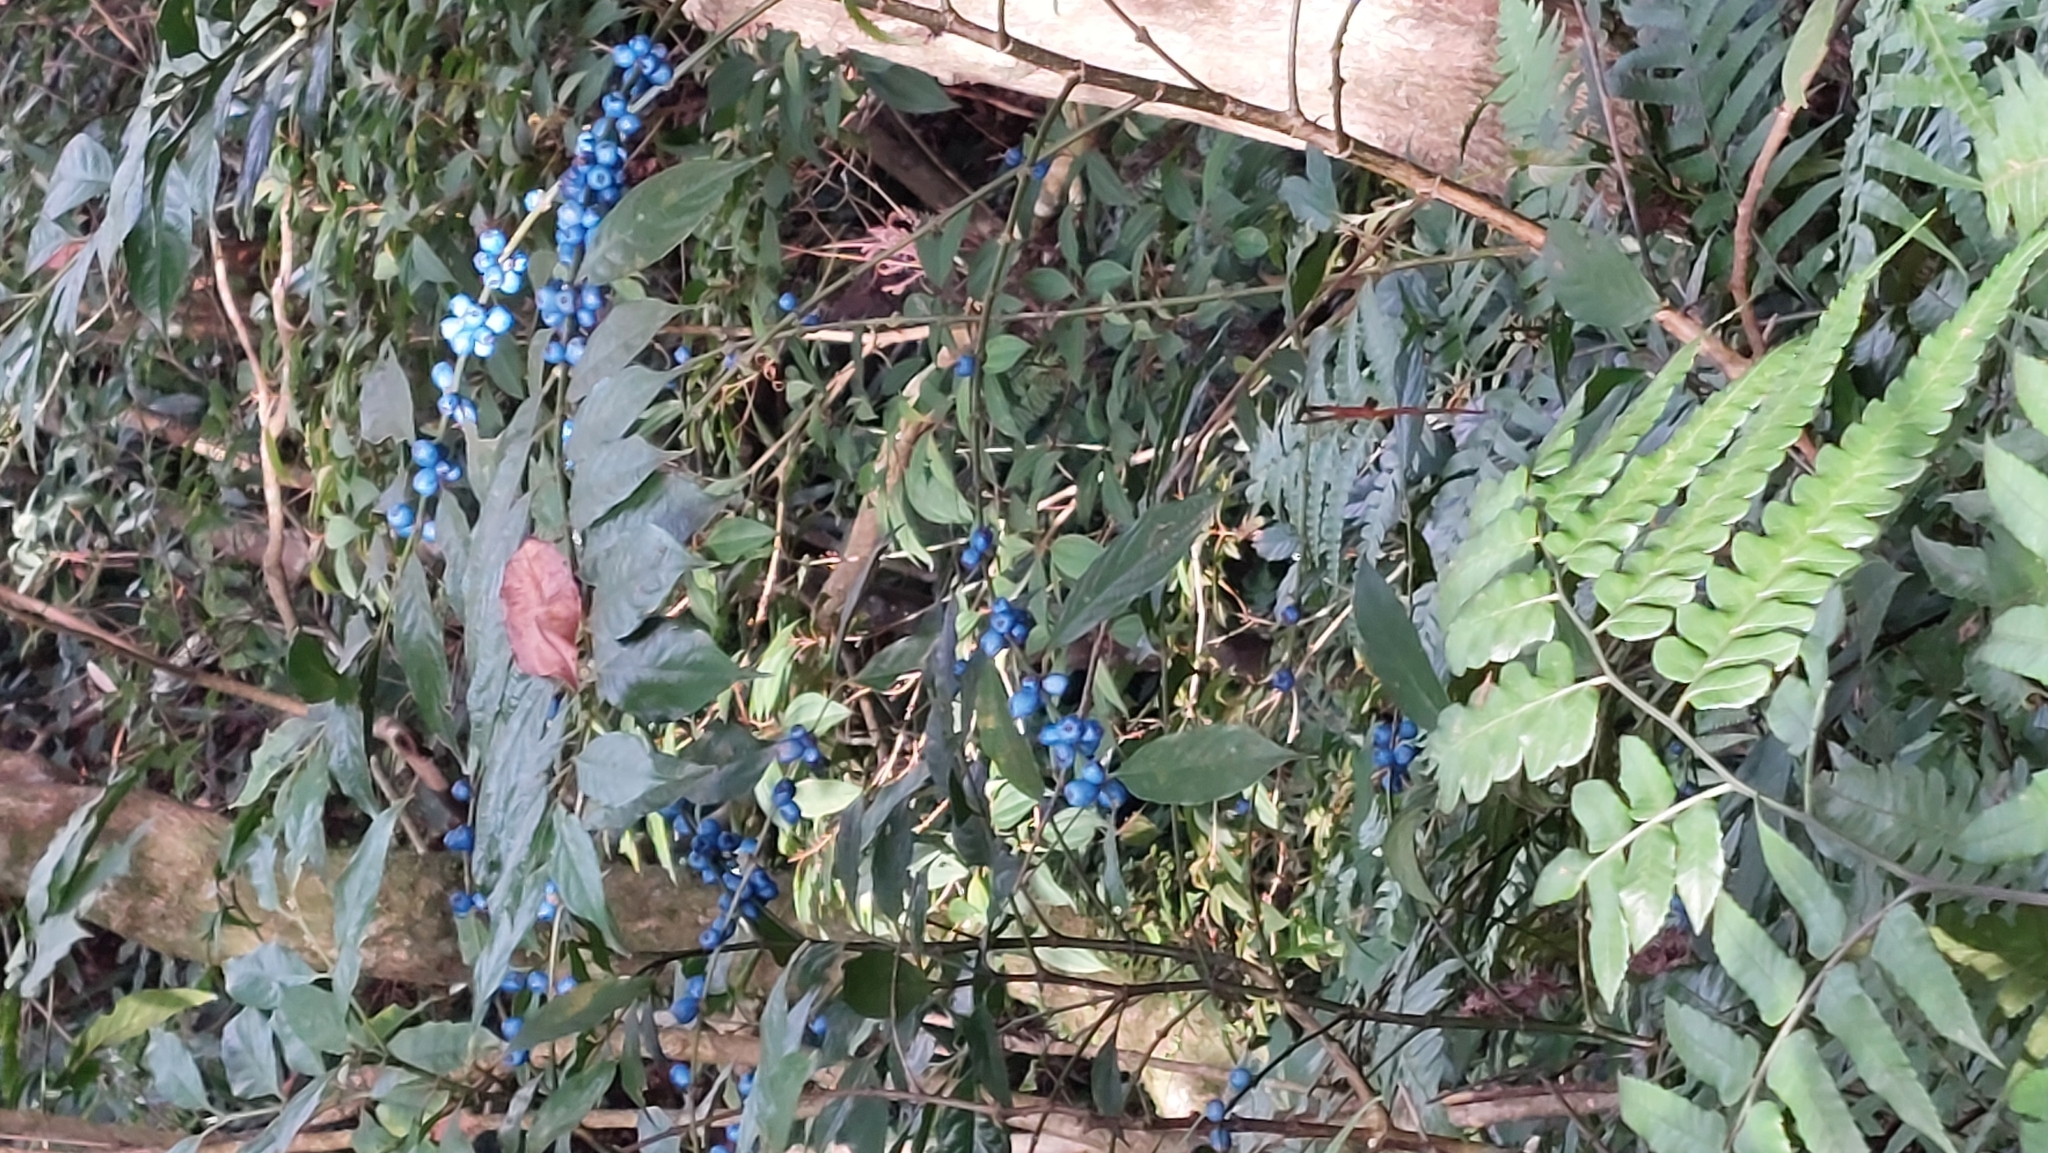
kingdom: Plantae
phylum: Tracheophyta
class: Magnoliopsida
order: Gentianales
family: Rubiaceae
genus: Lasianthus
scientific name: Lasianthus fordii
